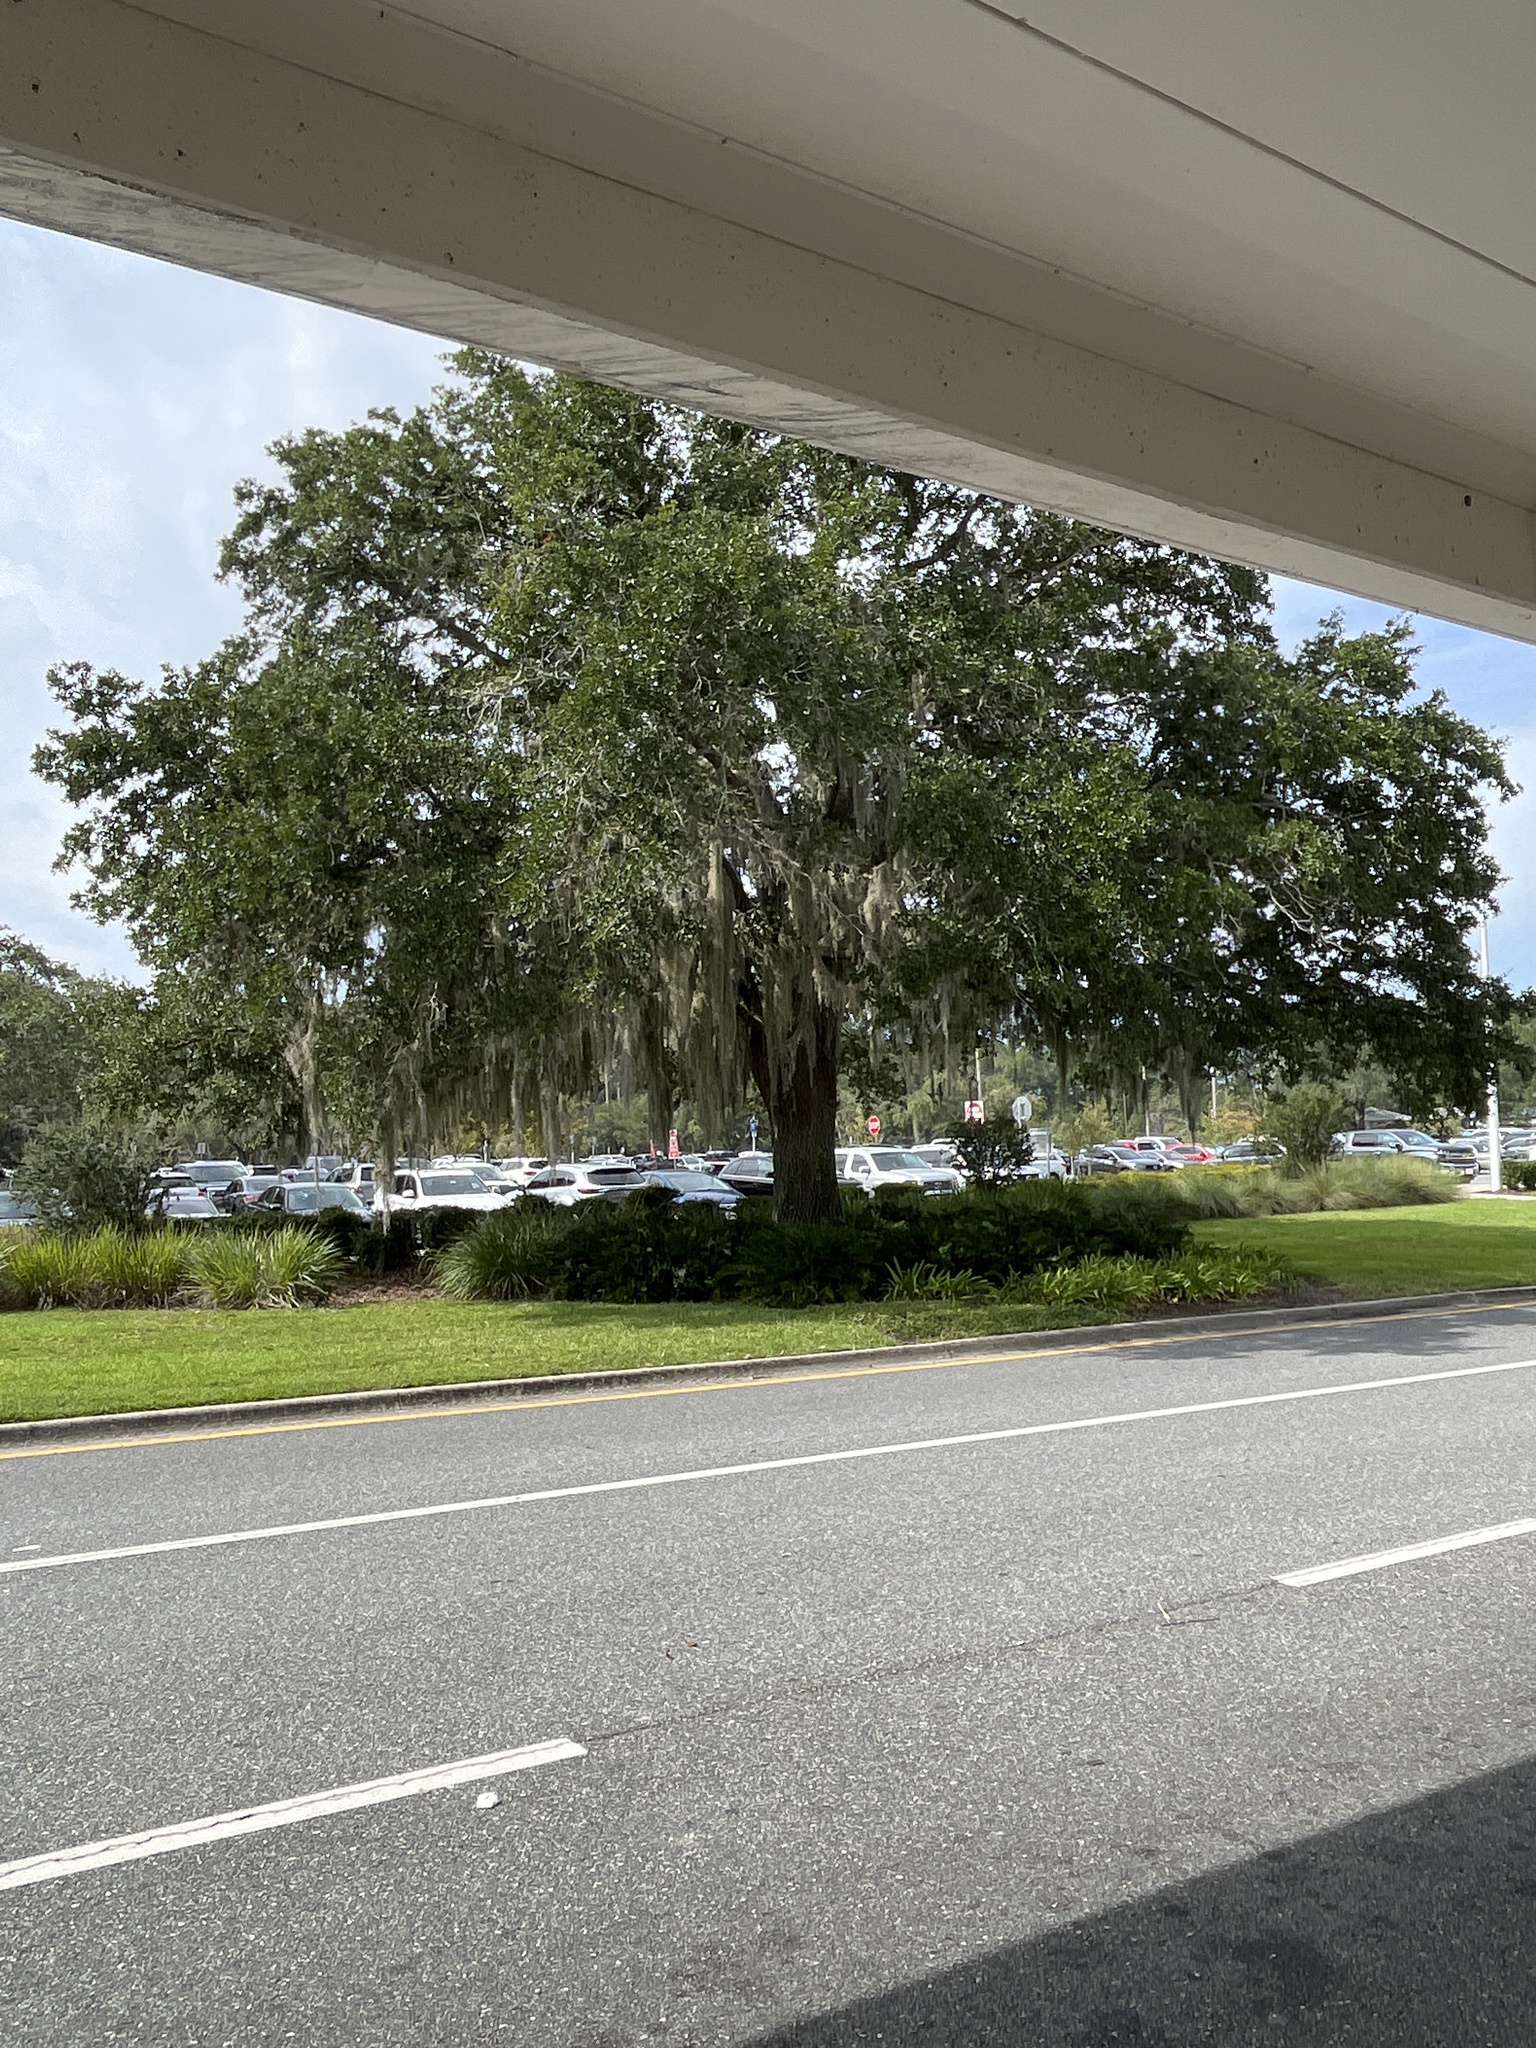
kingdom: Plantae
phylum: Tracheophyta
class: Liliopsida
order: Poales
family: Bromeliaceae
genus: Tillandsia
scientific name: Tillandsia usneoides
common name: Spanish moss
